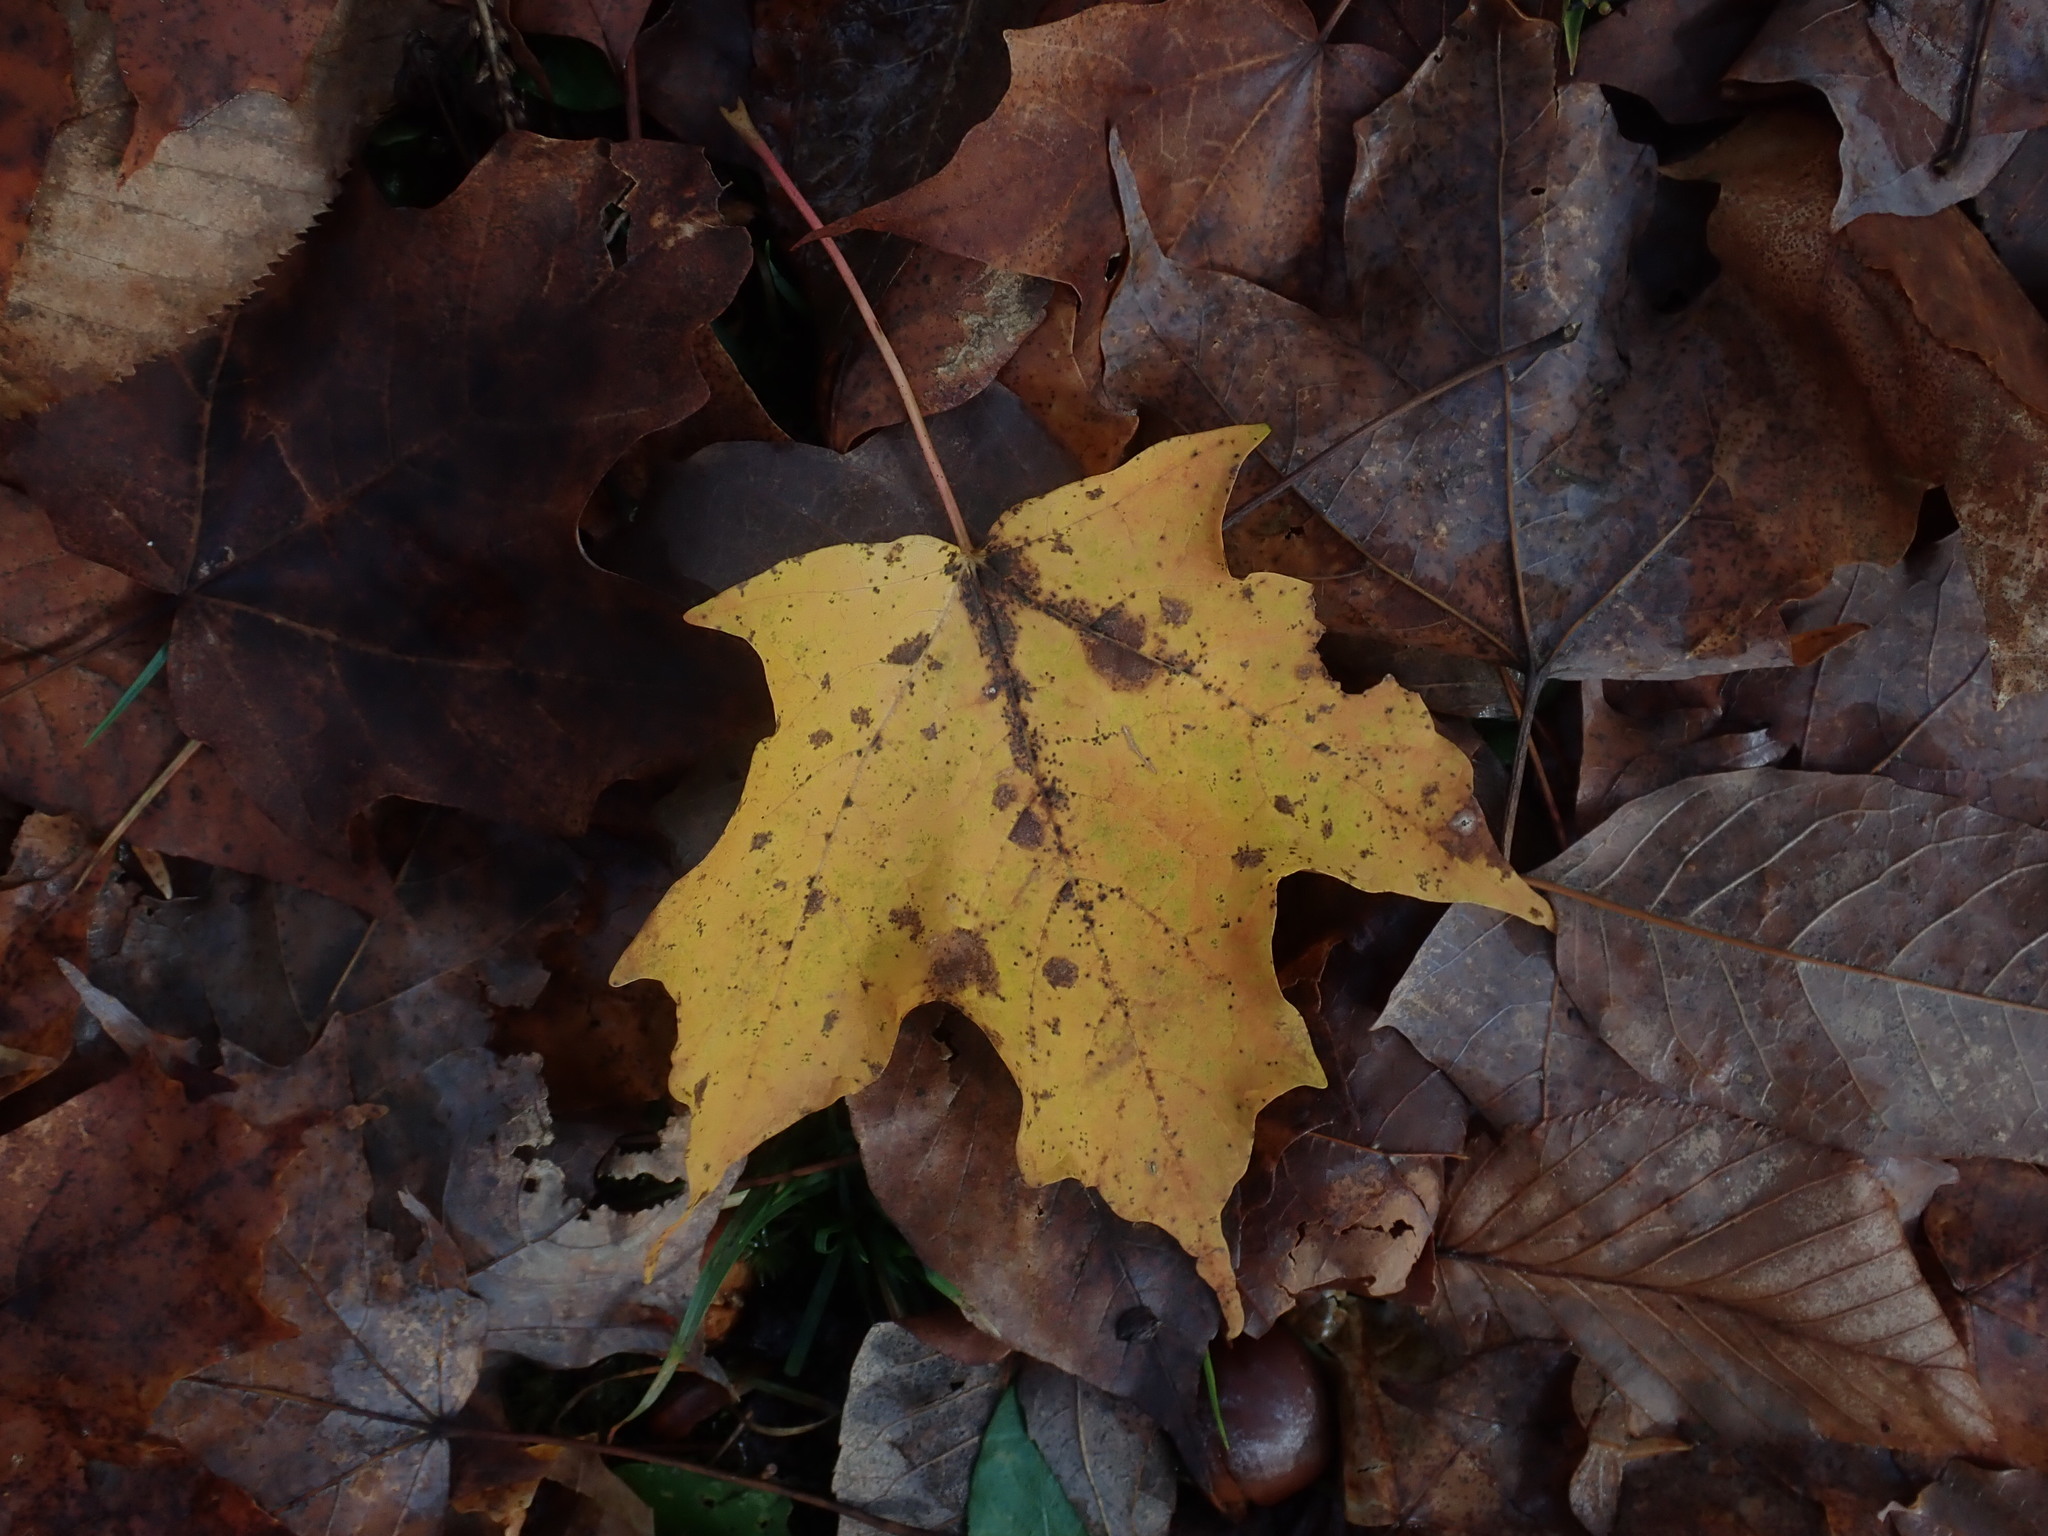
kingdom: Plantae
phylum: Tracheophyta
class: Magnoliopsida
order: Sapindales
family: Sapindaceae
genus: Acer
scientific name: Acer saccharum
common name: Sugar maple
